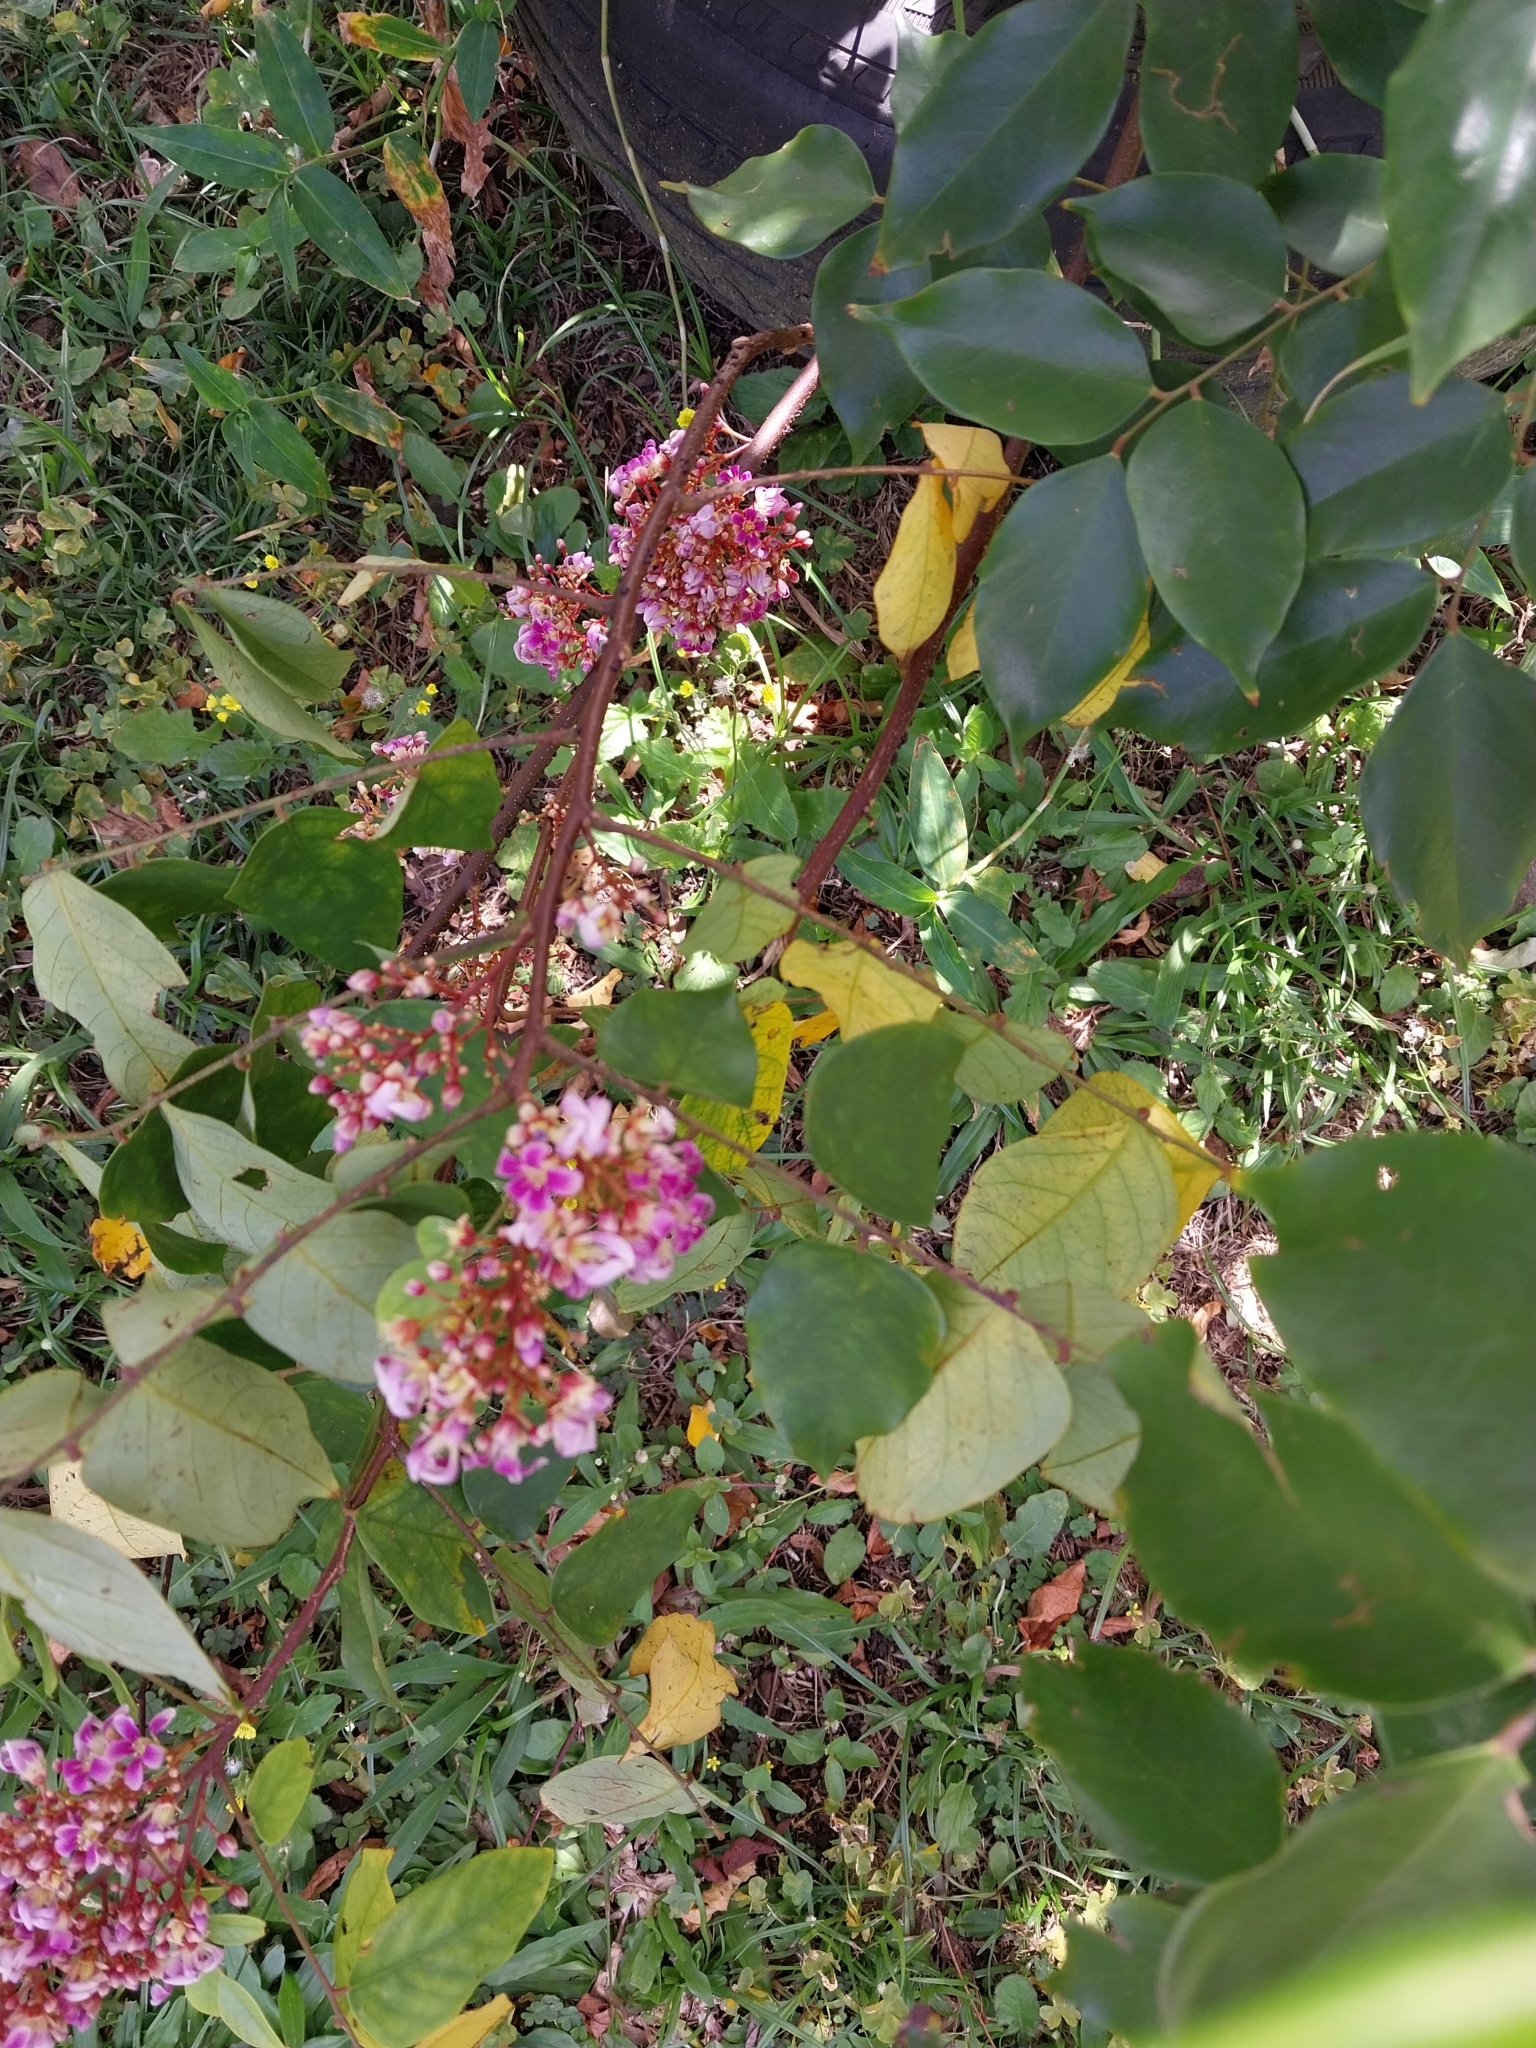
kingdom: Plantae
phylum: Tracheophyta
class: Magnoliopsida
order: Oxalidales
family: Oxalidaceae
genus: Averrhoa
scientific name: Averrhoa carambola
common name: Blimbing
